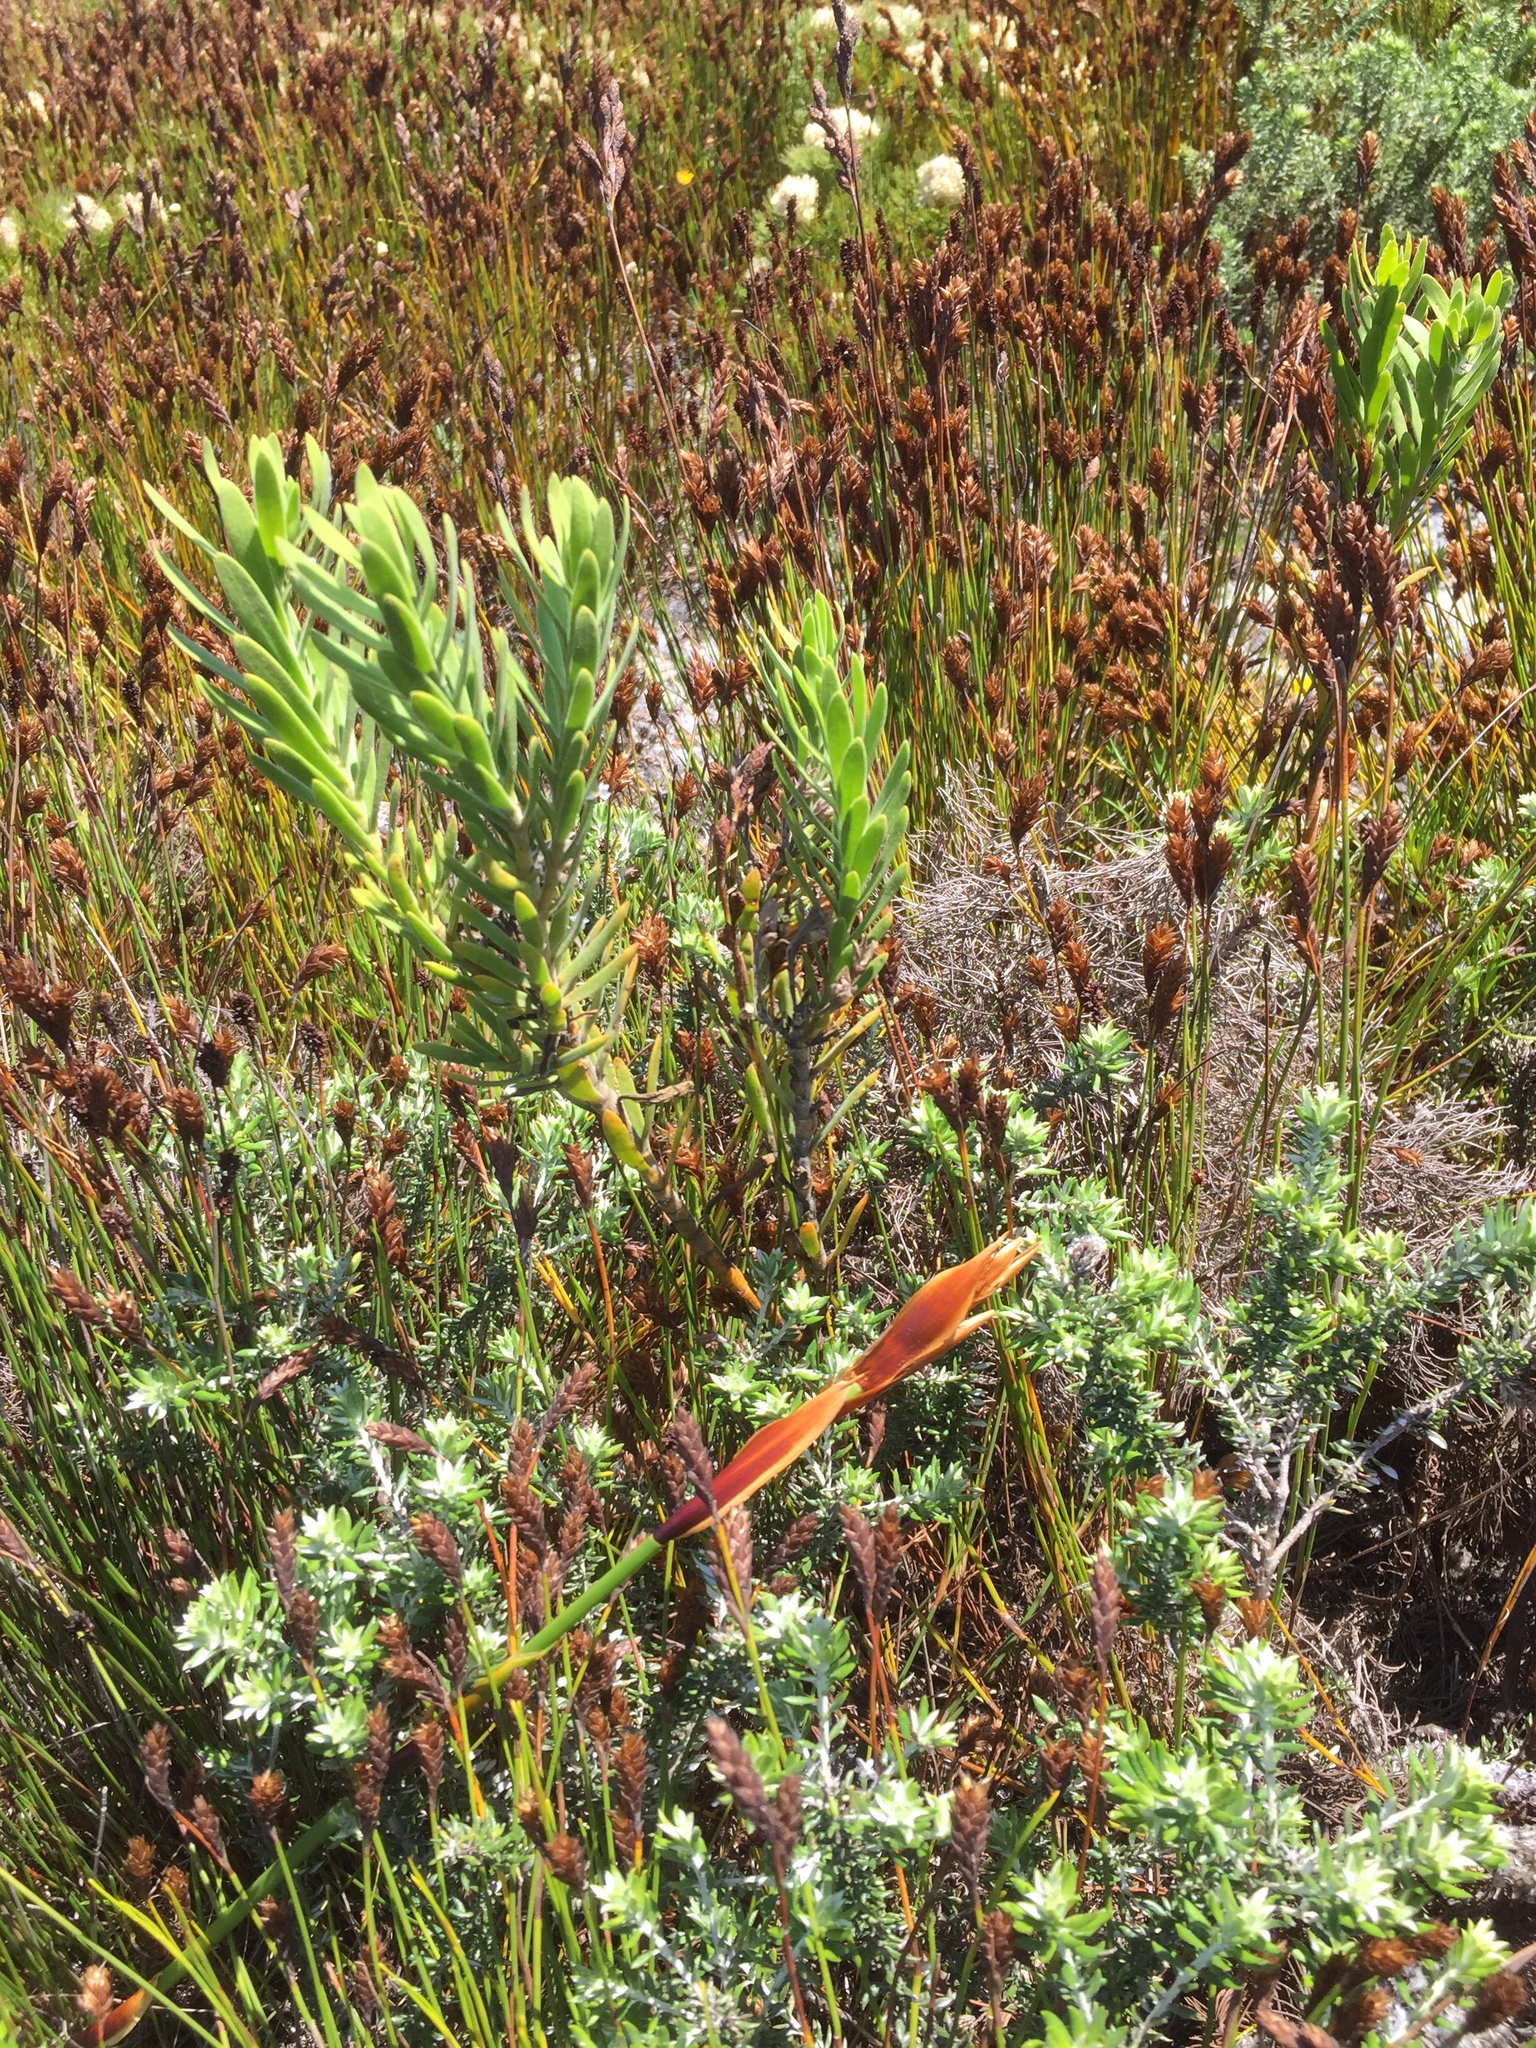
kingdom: Plantae
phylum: Tracheophyta
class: Magnoliopsida
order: Gentianales
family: Gentianaceae
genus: Orphium
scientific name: Orphium frutescens
